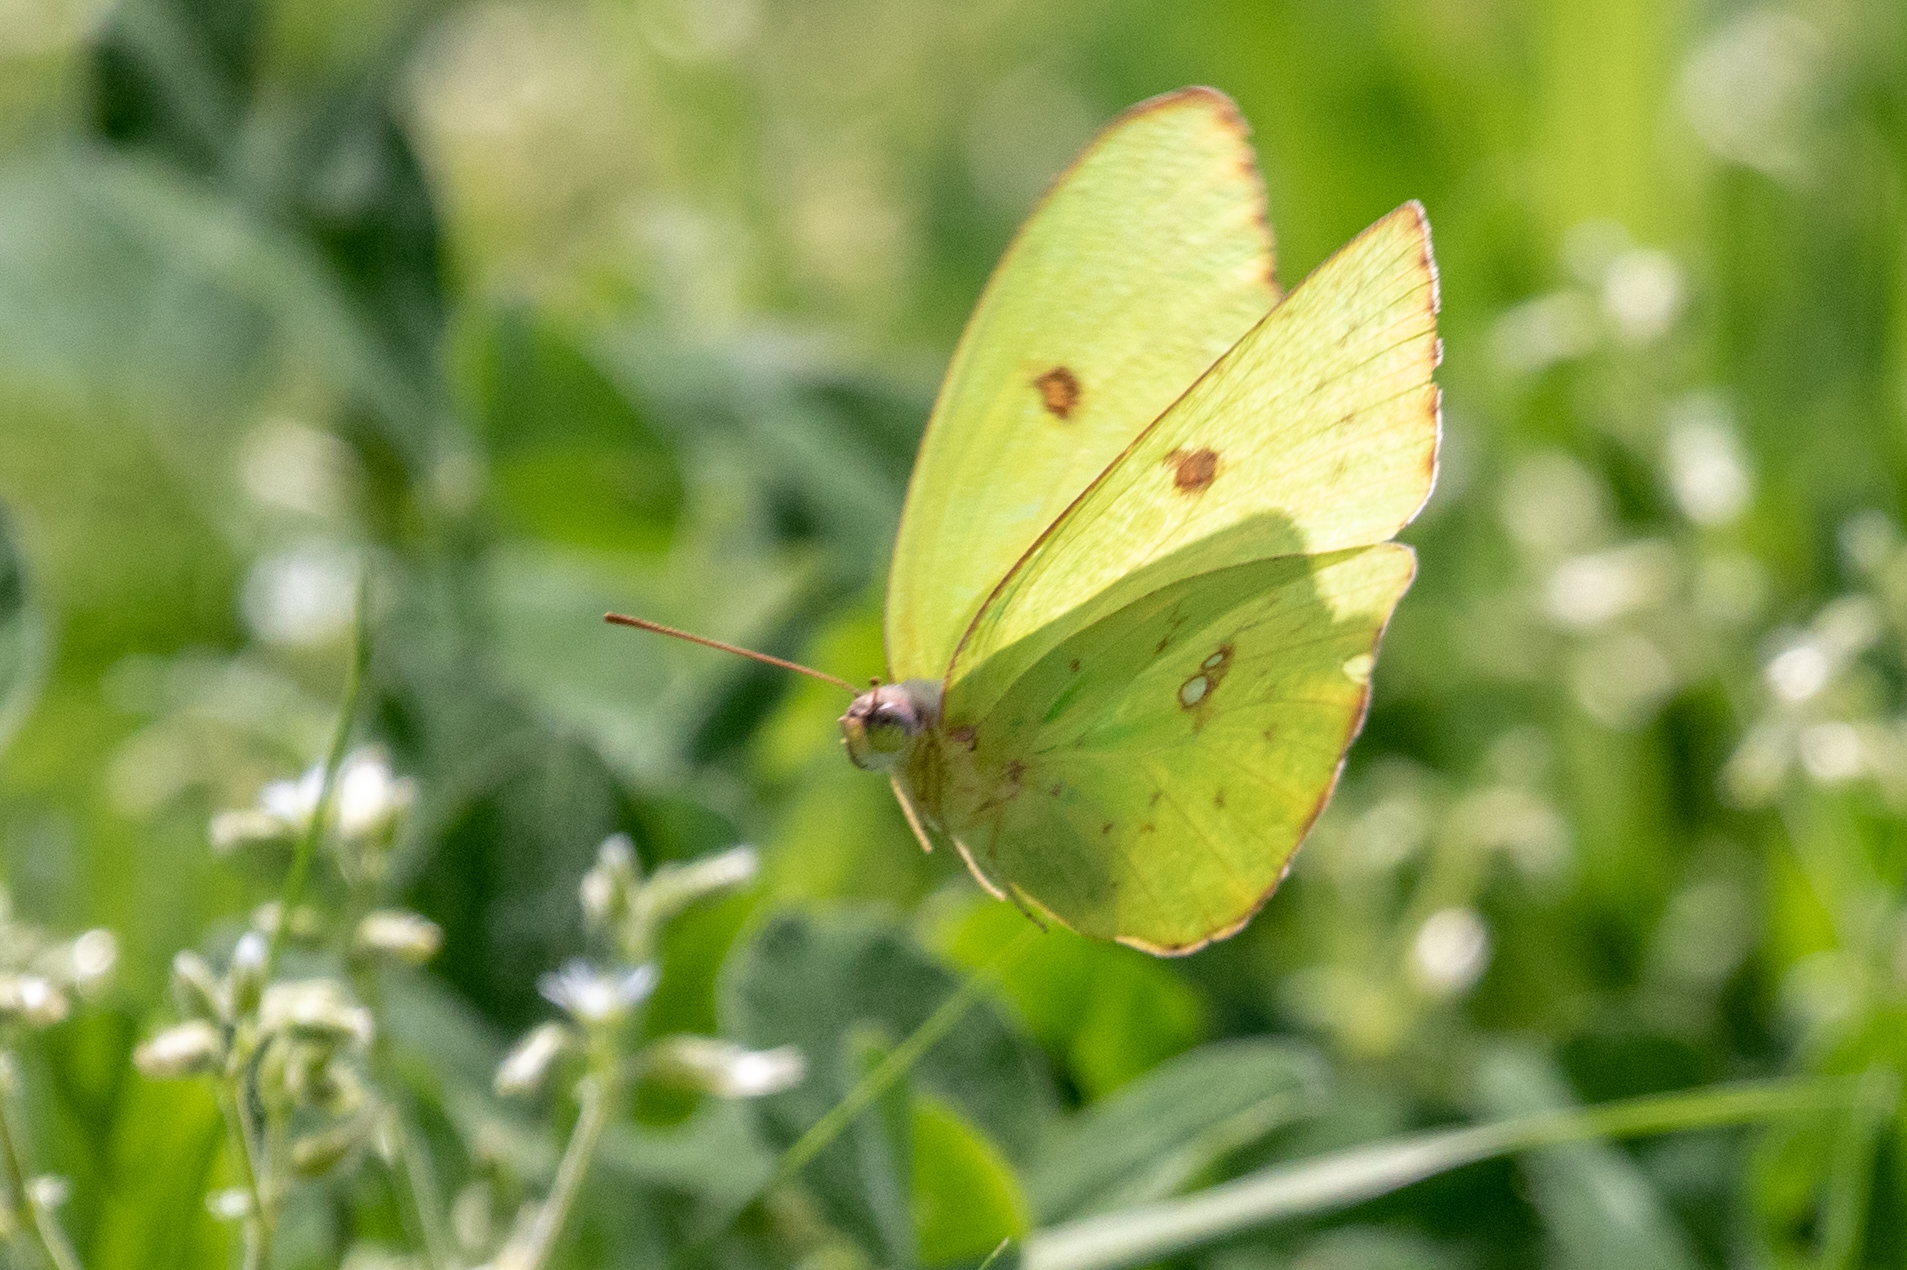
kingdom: Animalia
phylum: Arthropoda
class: Insecta
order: Lepidoptera
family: Pieridae
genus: Phoebis
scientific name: Phoebis sennae
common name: Cloudless sulphur
